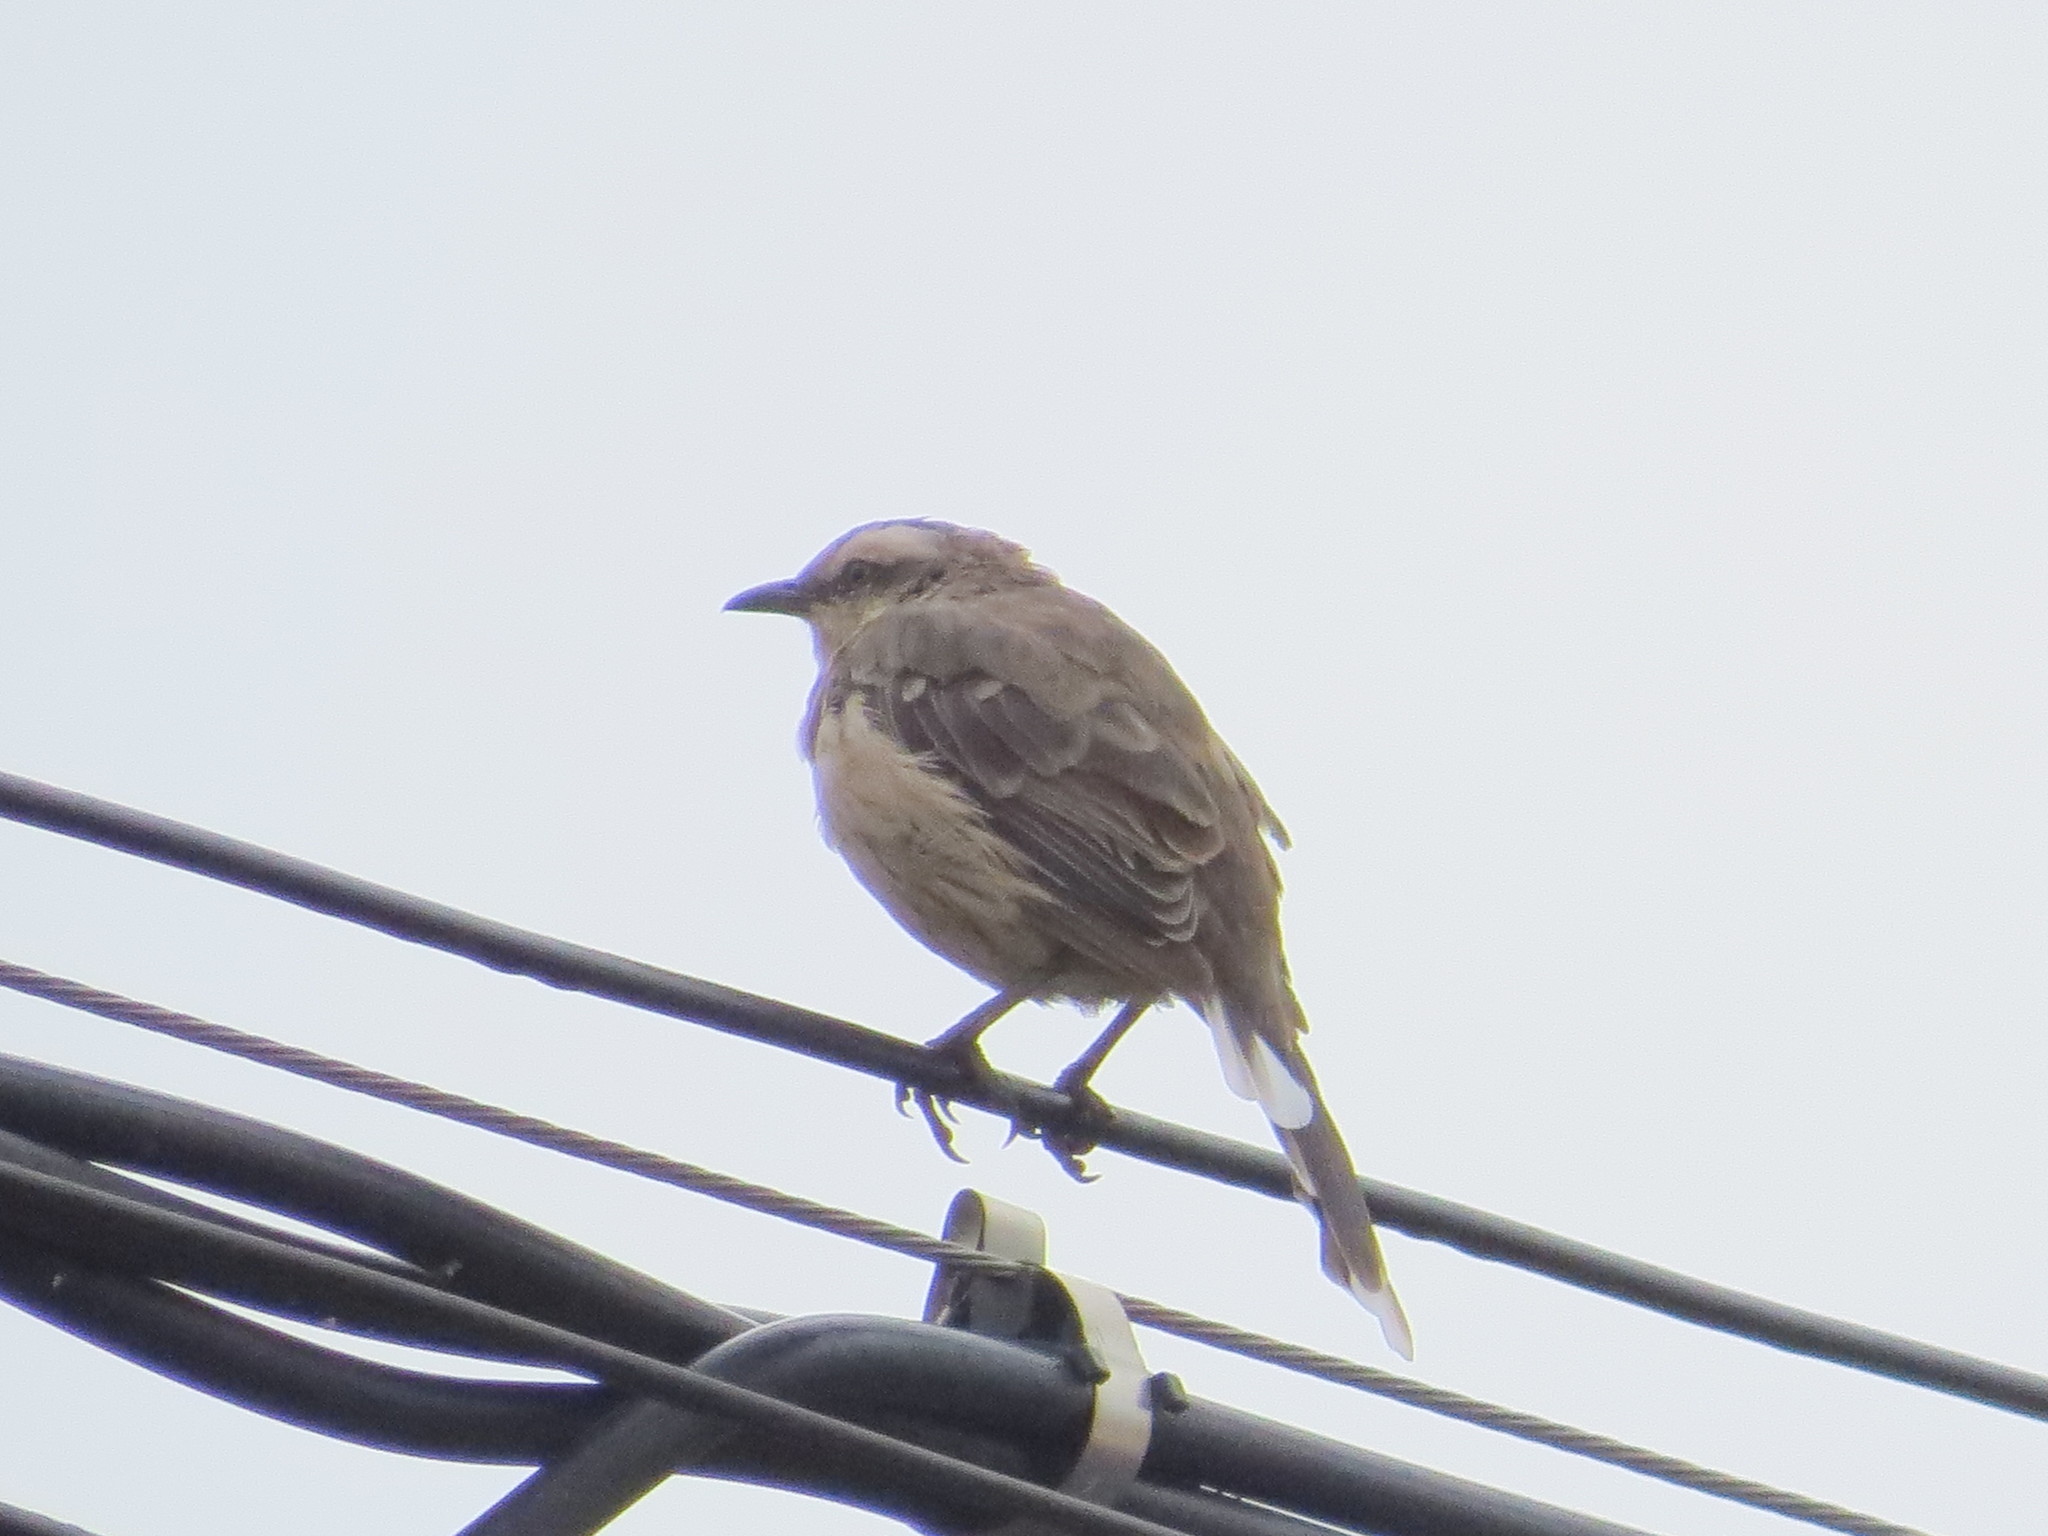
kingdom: Animalia
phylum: Chordata
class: Aves
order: Passeriformes
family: Mimidae
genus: Mimus
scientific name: Mimus saturninus
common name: Chalk-browed mockingbird
